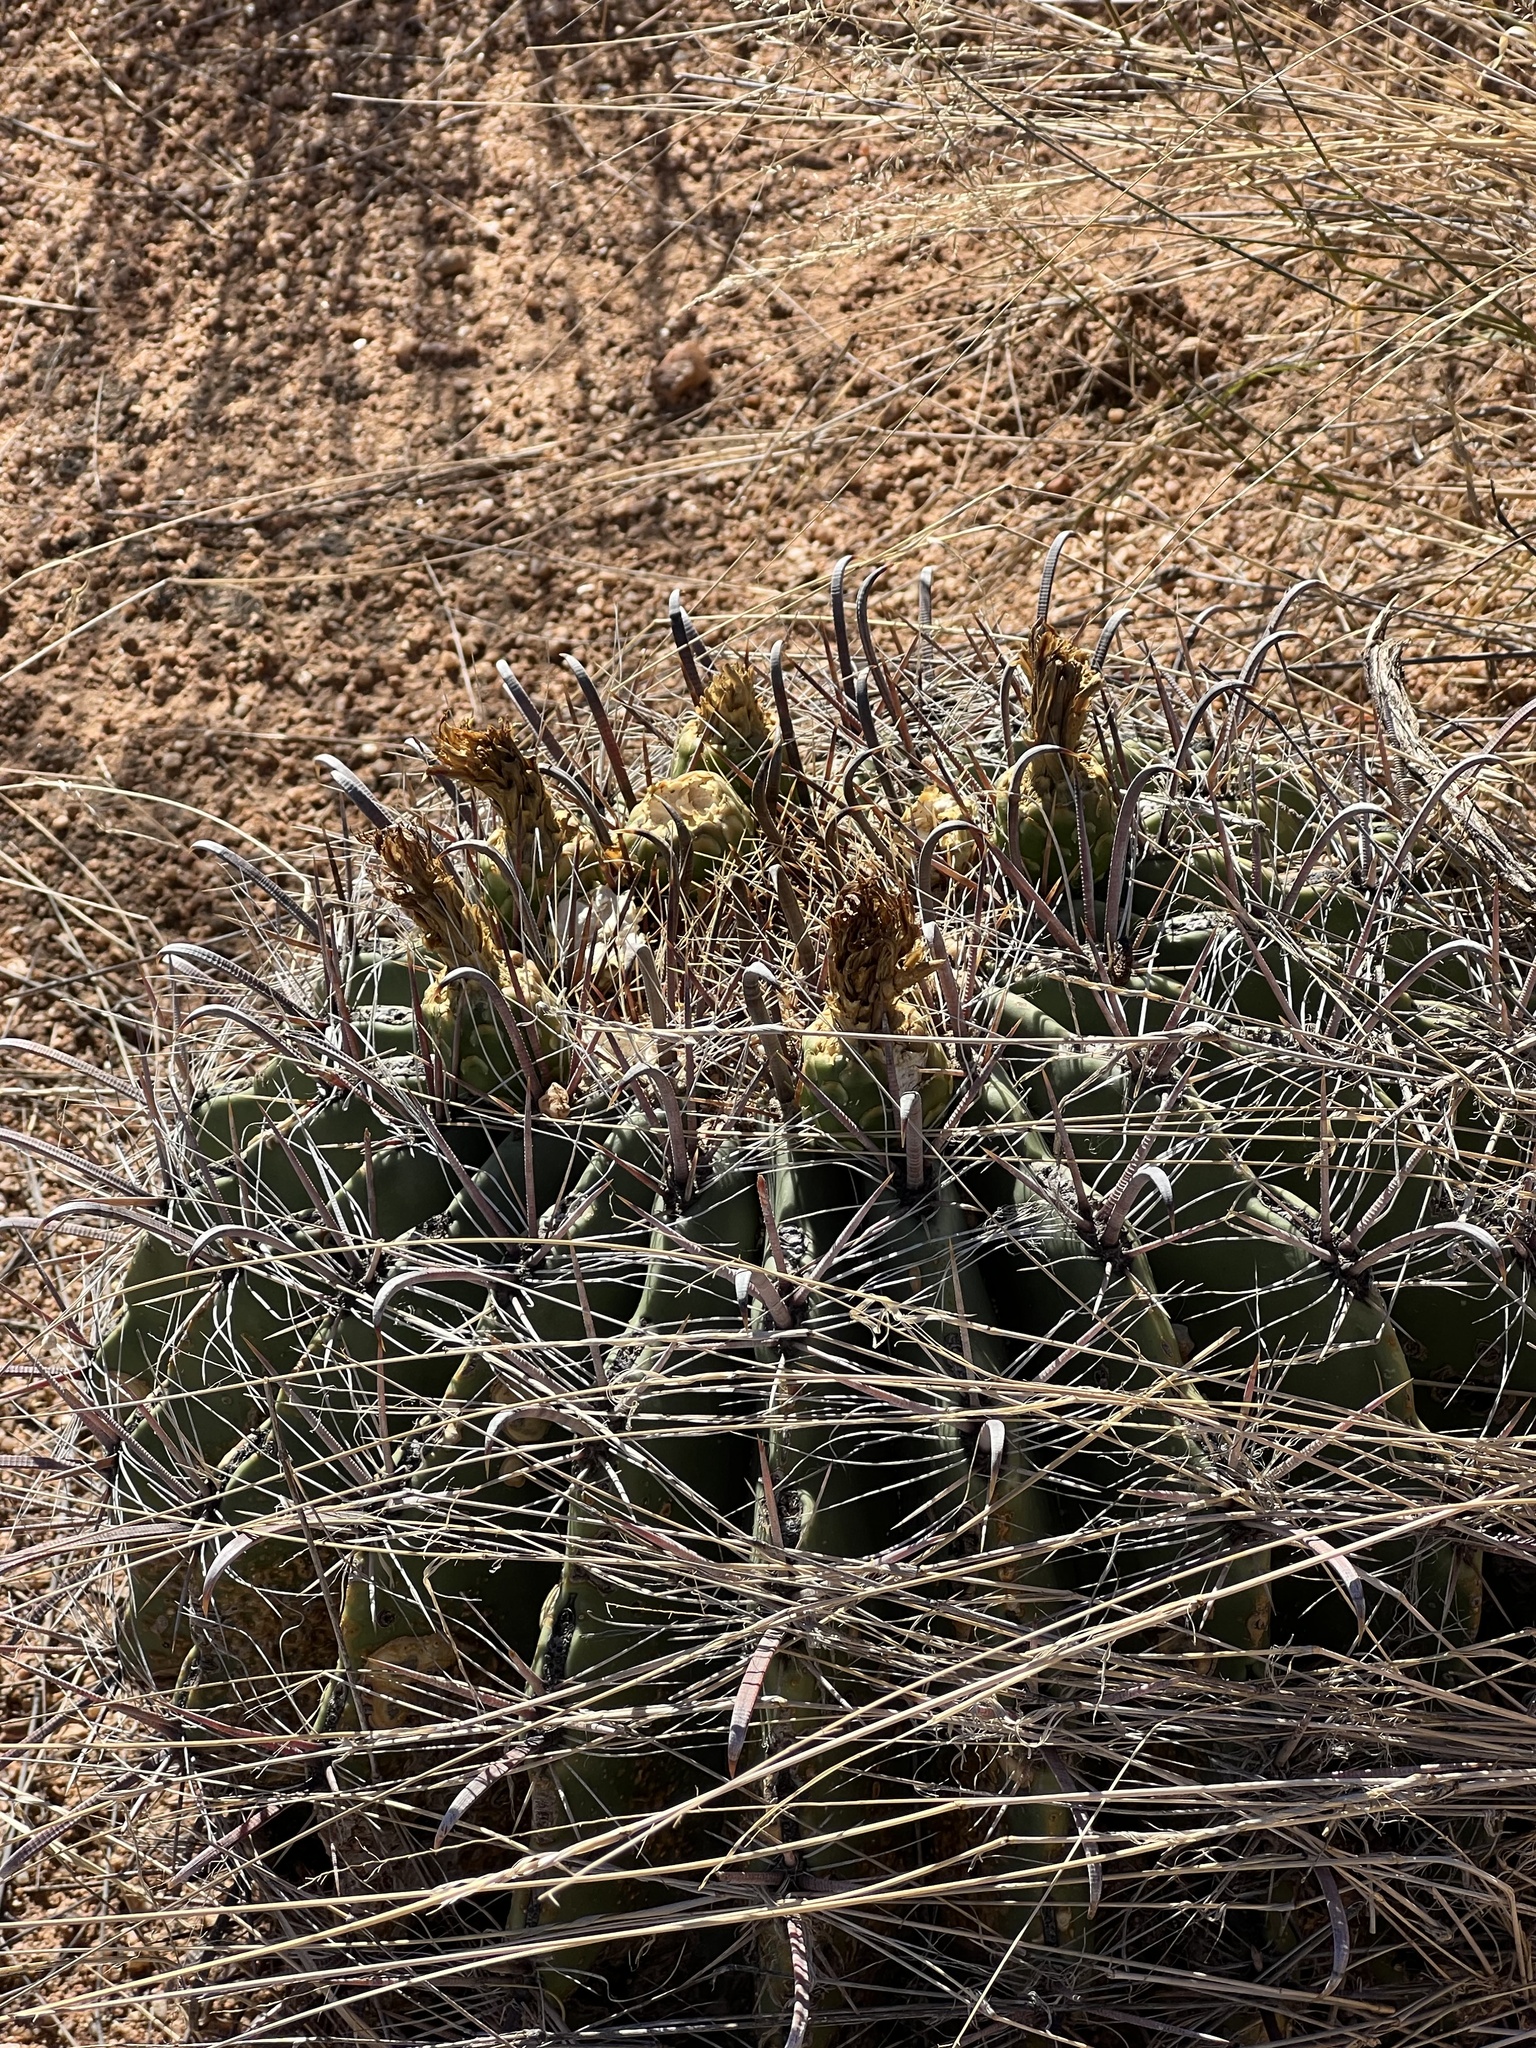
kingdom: Plantae
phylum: Tracheophyta
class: Magnoliopsida
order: Caryophyllales
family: Cactaceae
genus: Ferocactus
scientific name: Ferocactus wislizeni
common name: Candy barrel cactus
